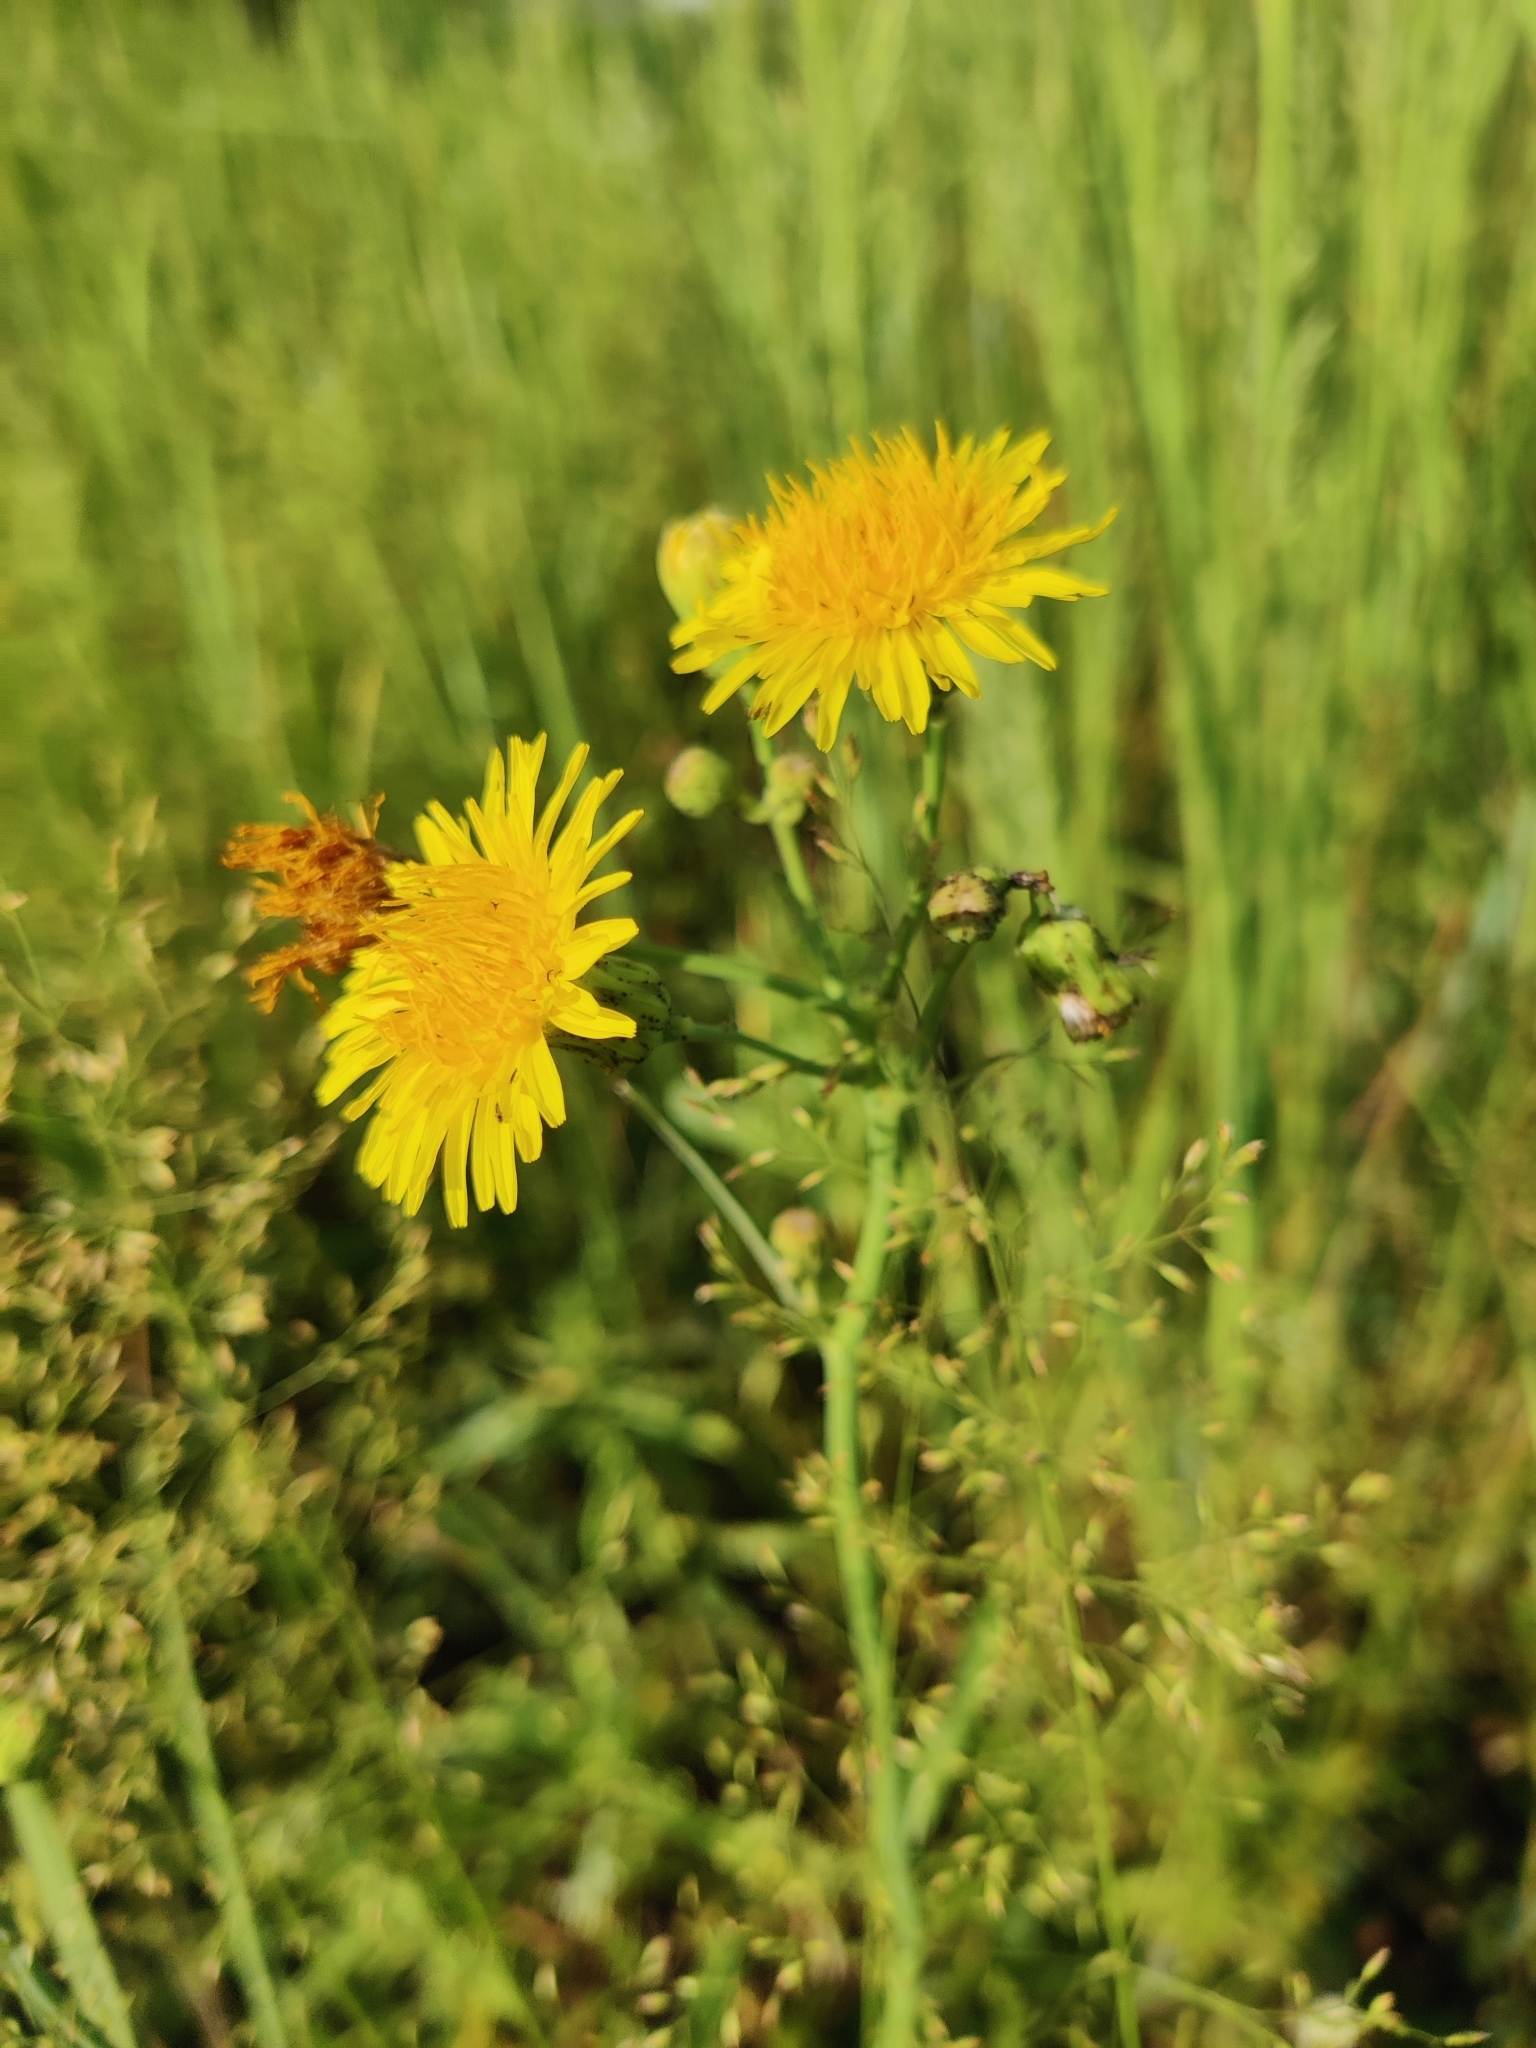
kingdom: Plantae
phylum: Tracheophyta
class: Magnoliopsida
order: Asterales
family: Asteraceae
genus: Sonchus
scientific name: Sonchus arvensis
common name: Perennial sow-thistle
